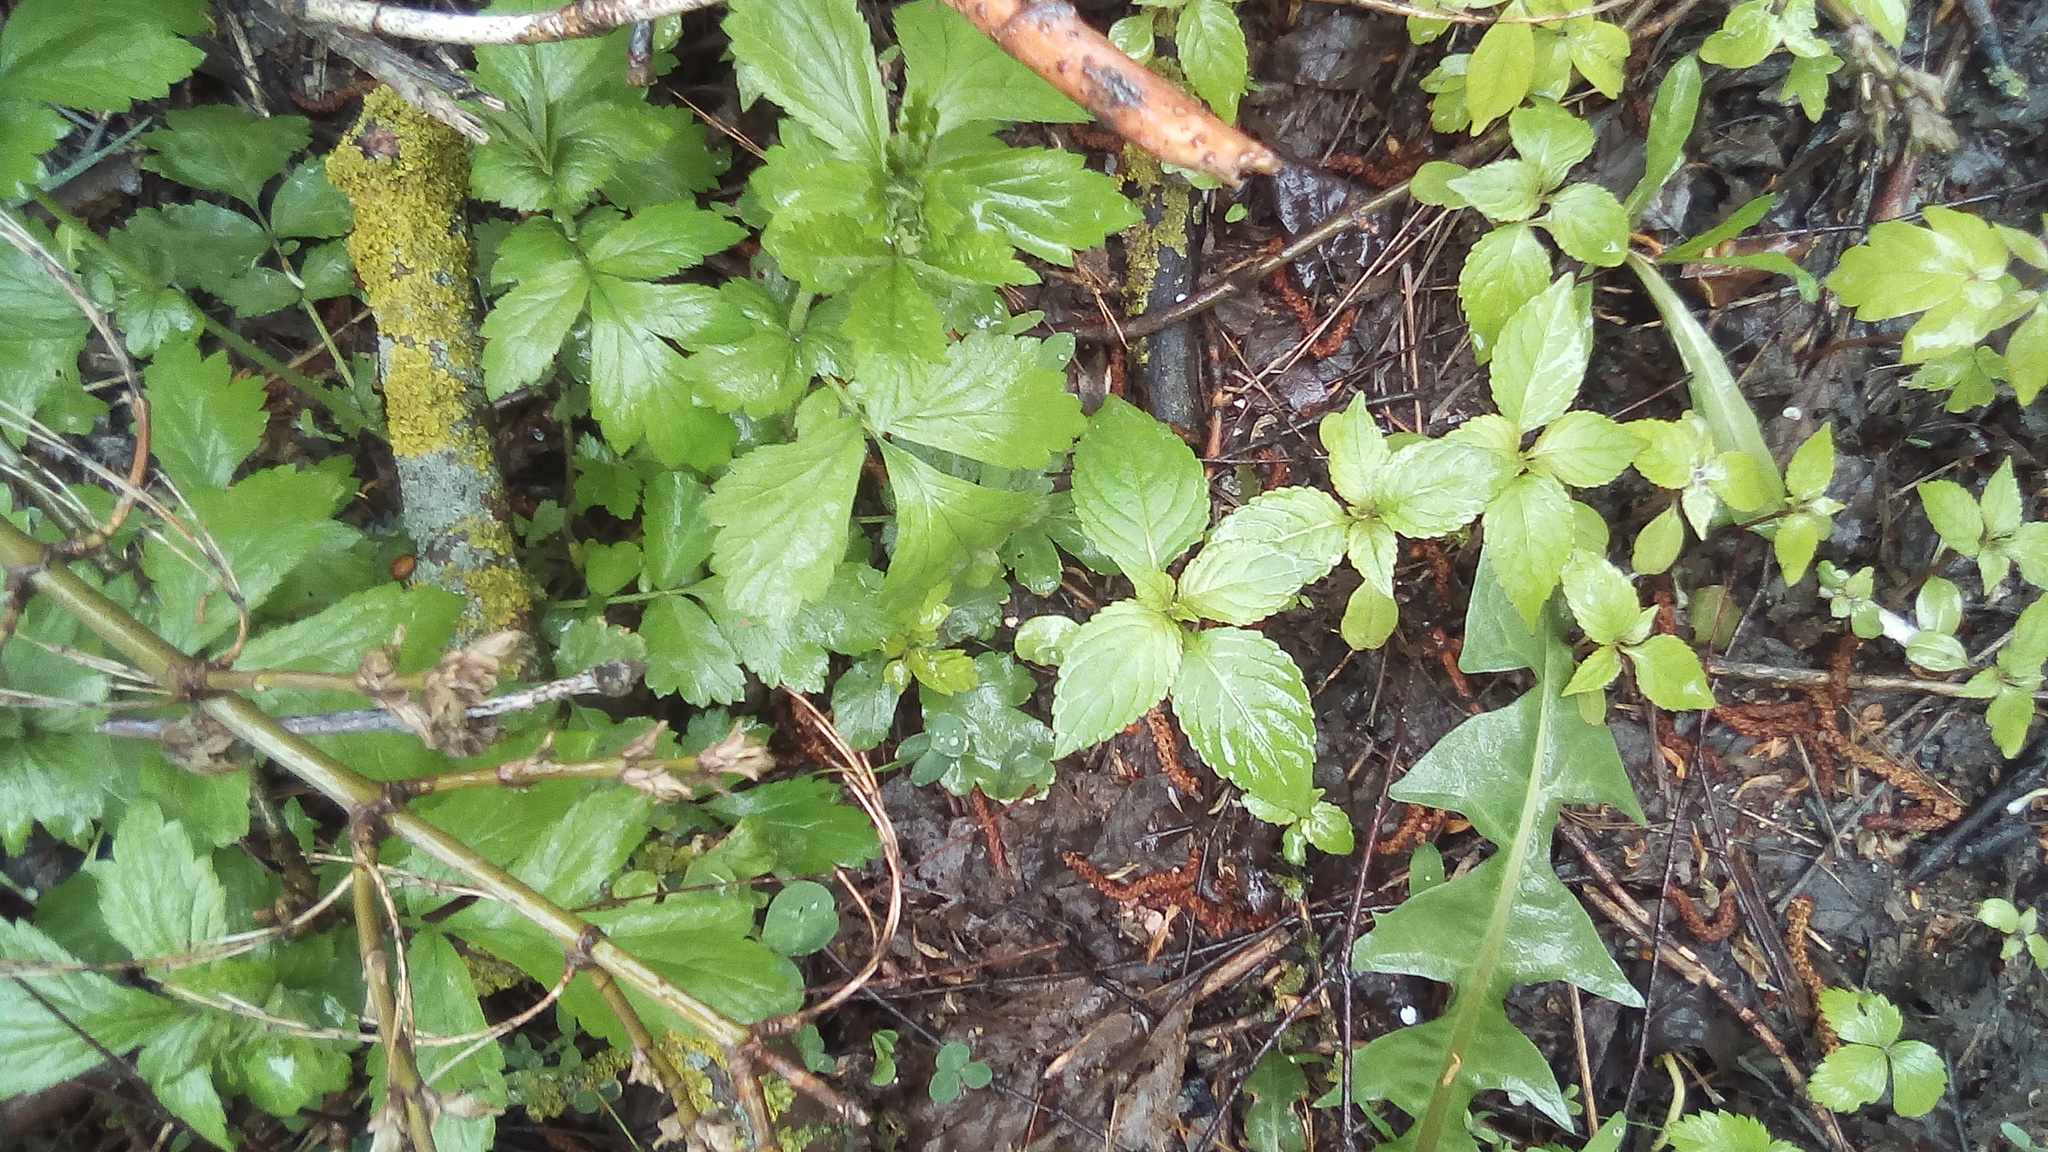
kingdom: Plantae
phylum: Tracheophyta
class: Magnoliopsida
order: Ericales
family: Balsaminaceae
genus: Impatiens
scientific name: Impatiens parviflora
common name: Small balsam
